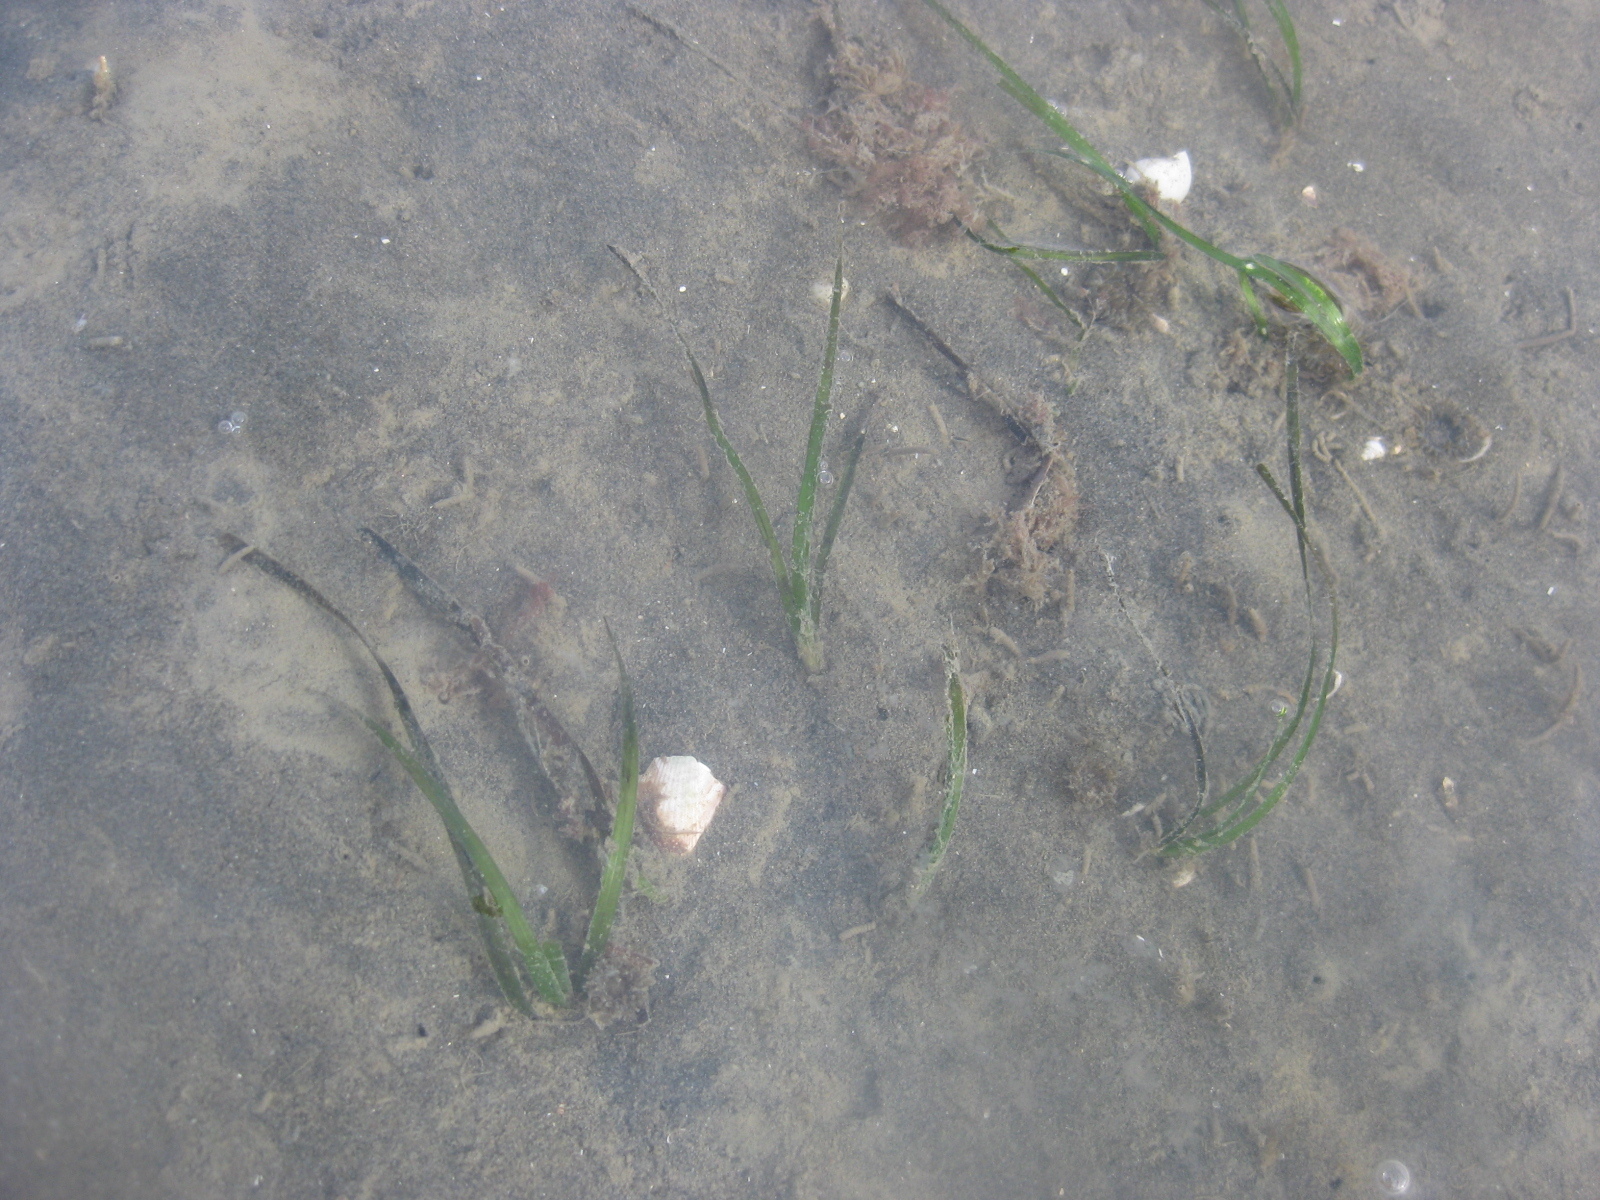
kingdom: Plantae
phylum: Tracheophyta
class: Liliopsida
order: Alismatales
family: Zosteraceae
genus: Zostera
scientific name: Zostera novazelandica
